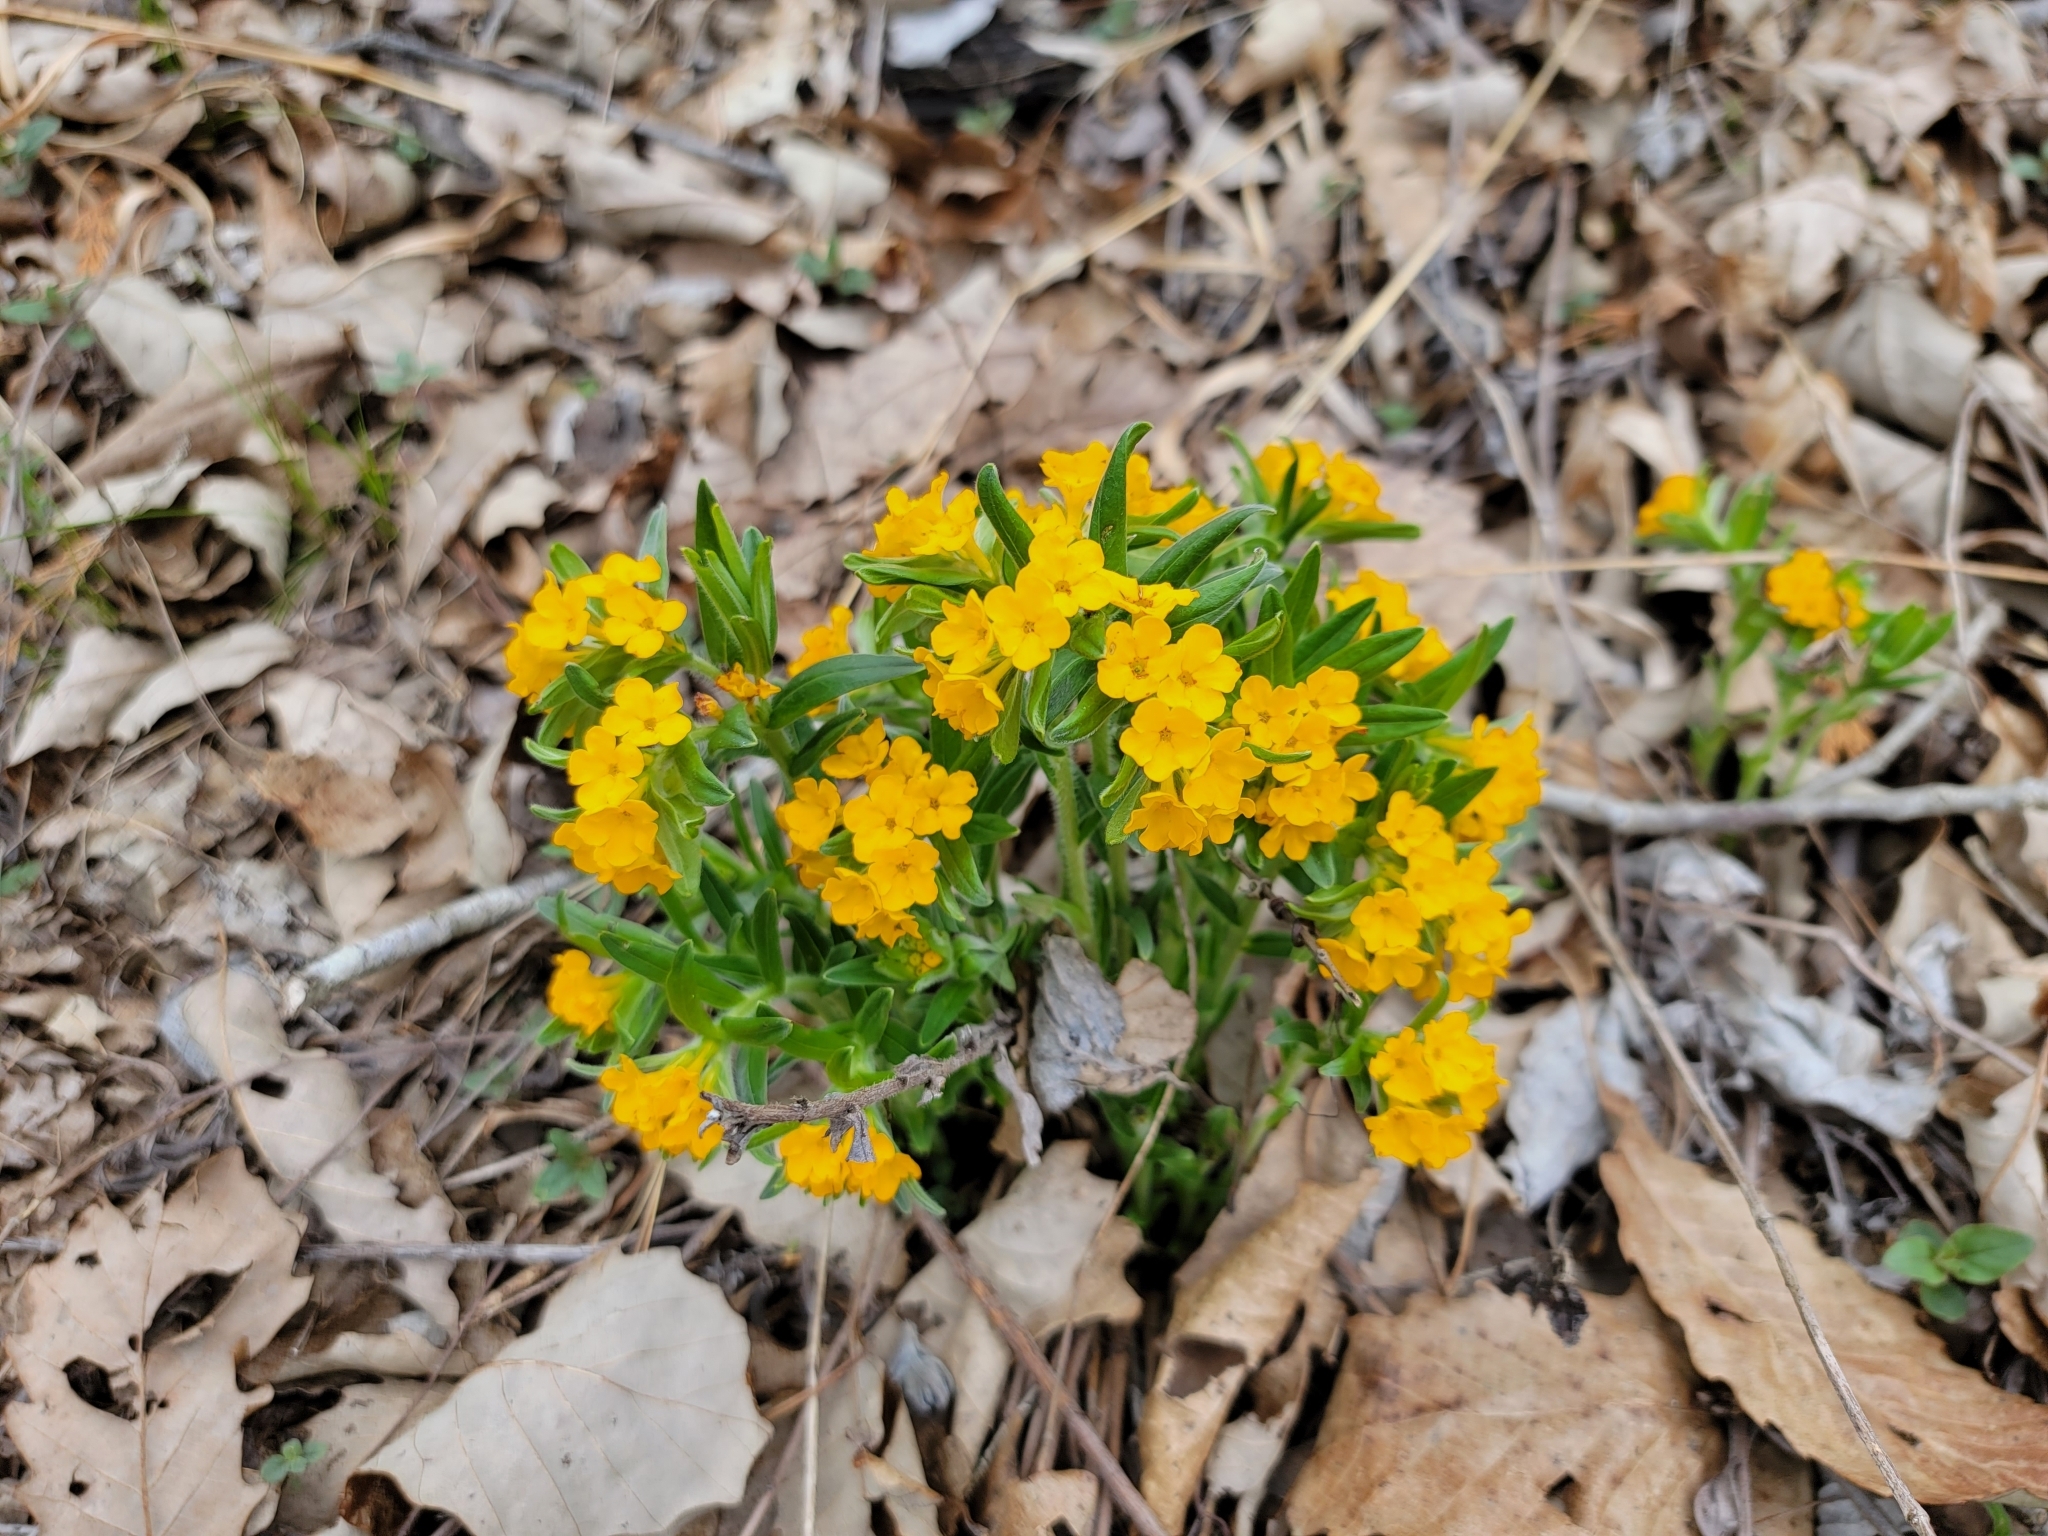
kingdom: Plantae
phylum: Tracheophyta
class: Magnoliopsida
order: Boraginales
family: Boraginaceae
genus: Lithospermum
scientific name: Lithospermum canescens
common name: Hoary puccoon
